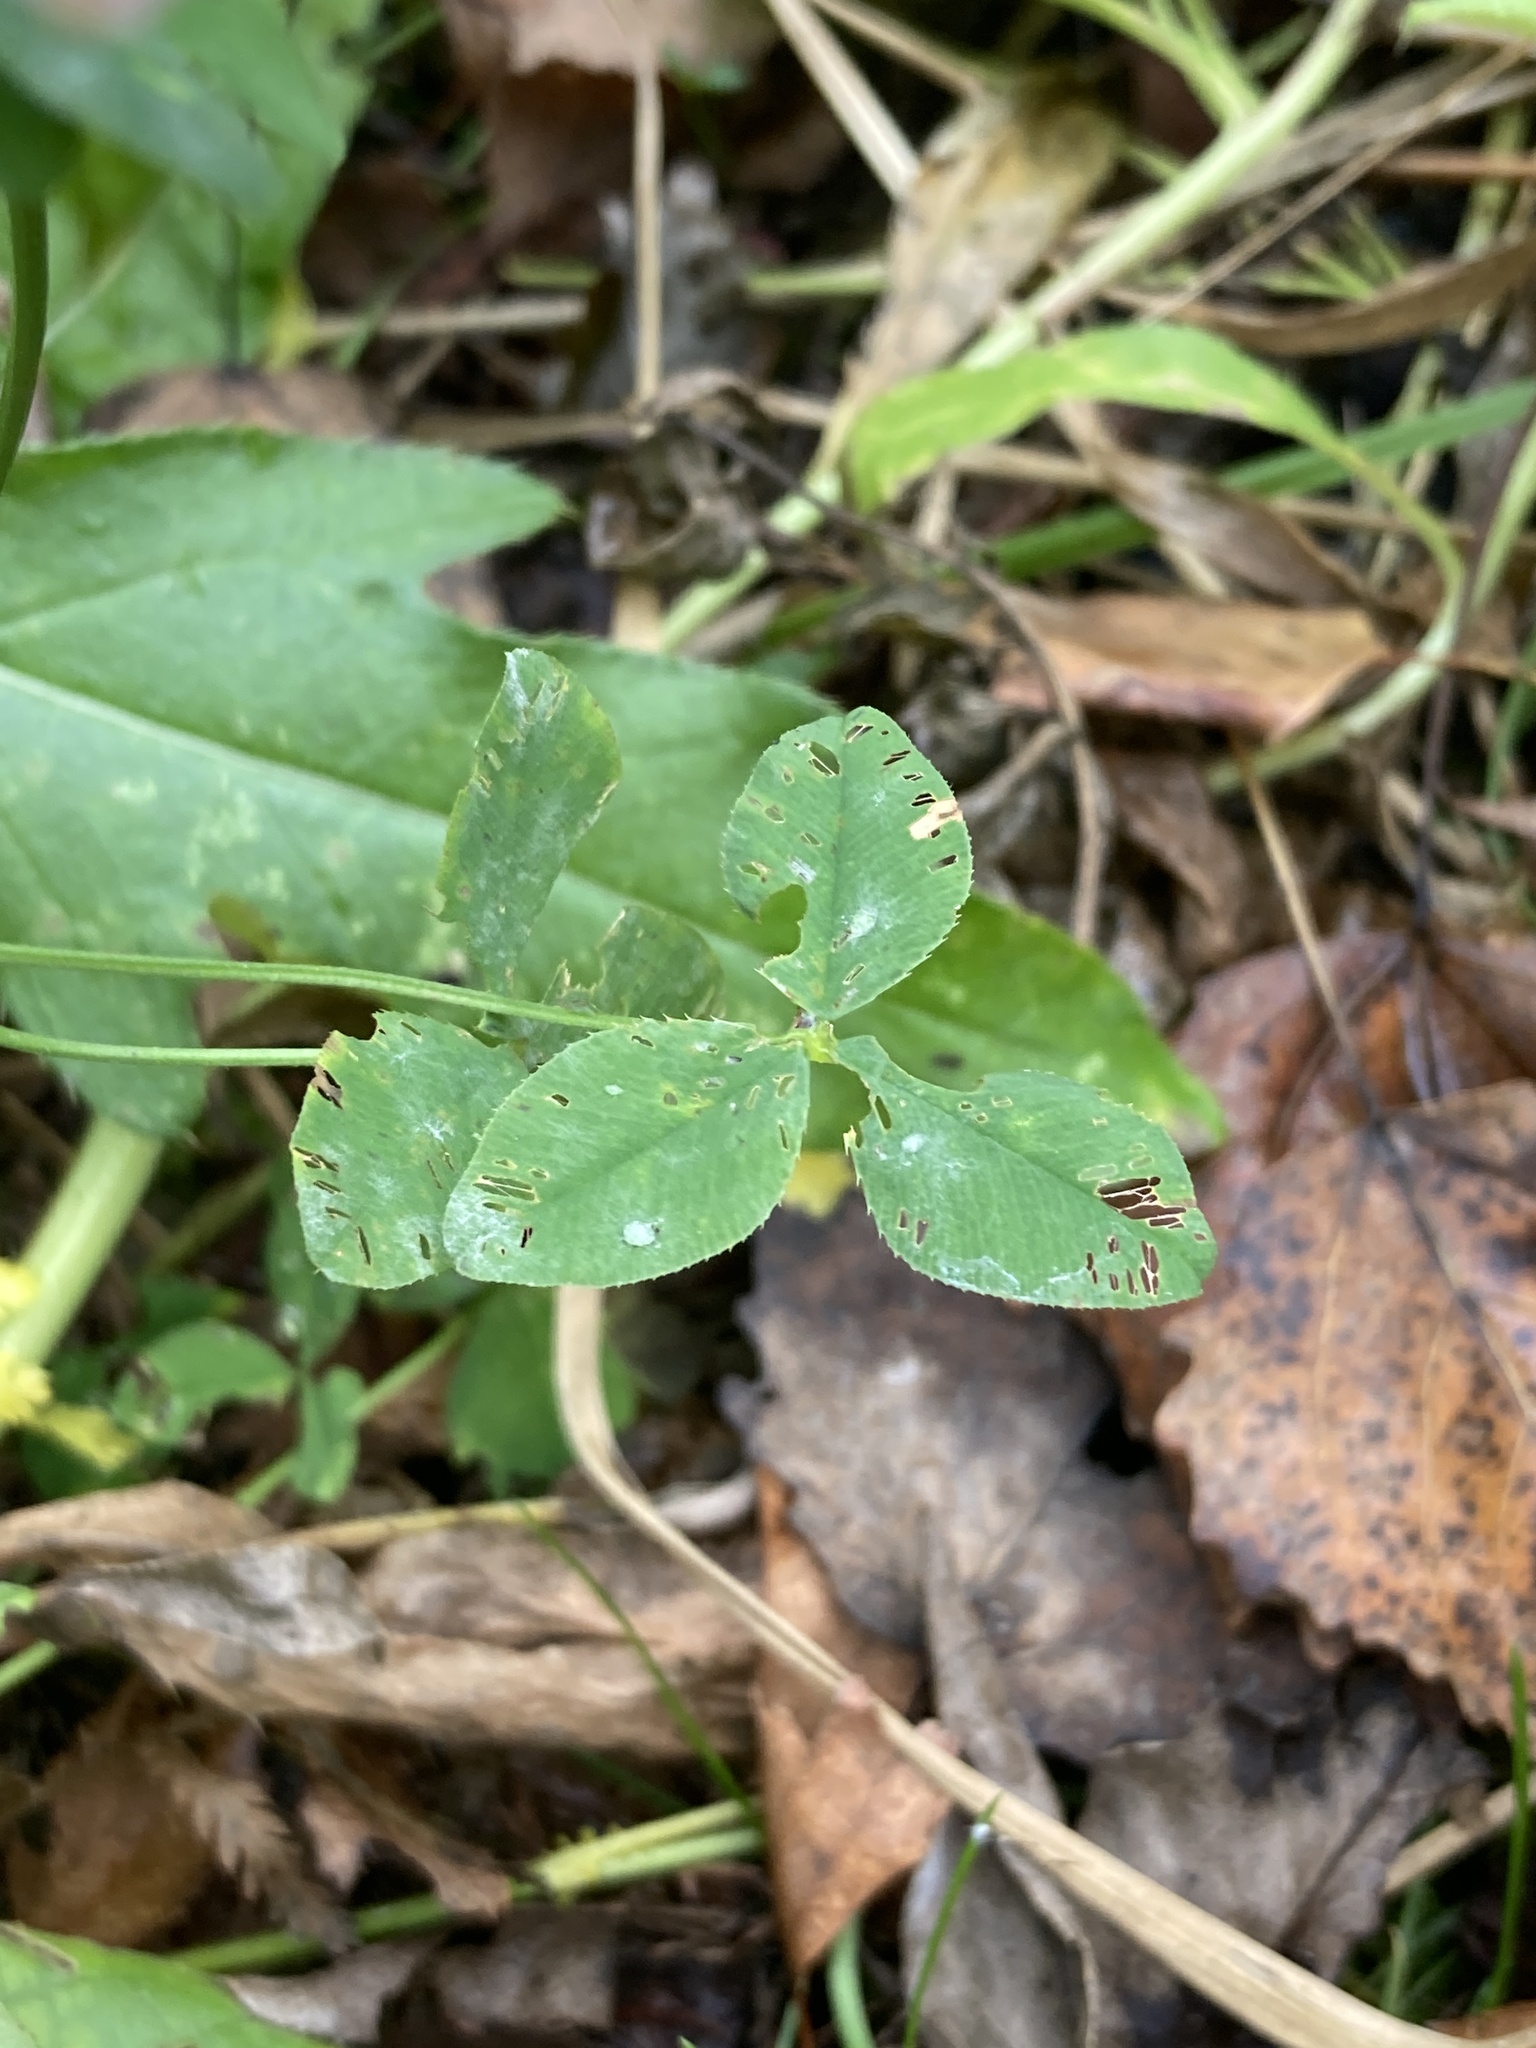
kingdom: Plantae
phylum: Tracheophyta
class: Magnoliopsida
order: Fabales
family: Fabaceae
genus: Trifolium
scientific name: Trifolium hybridum
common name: Alsike clover
